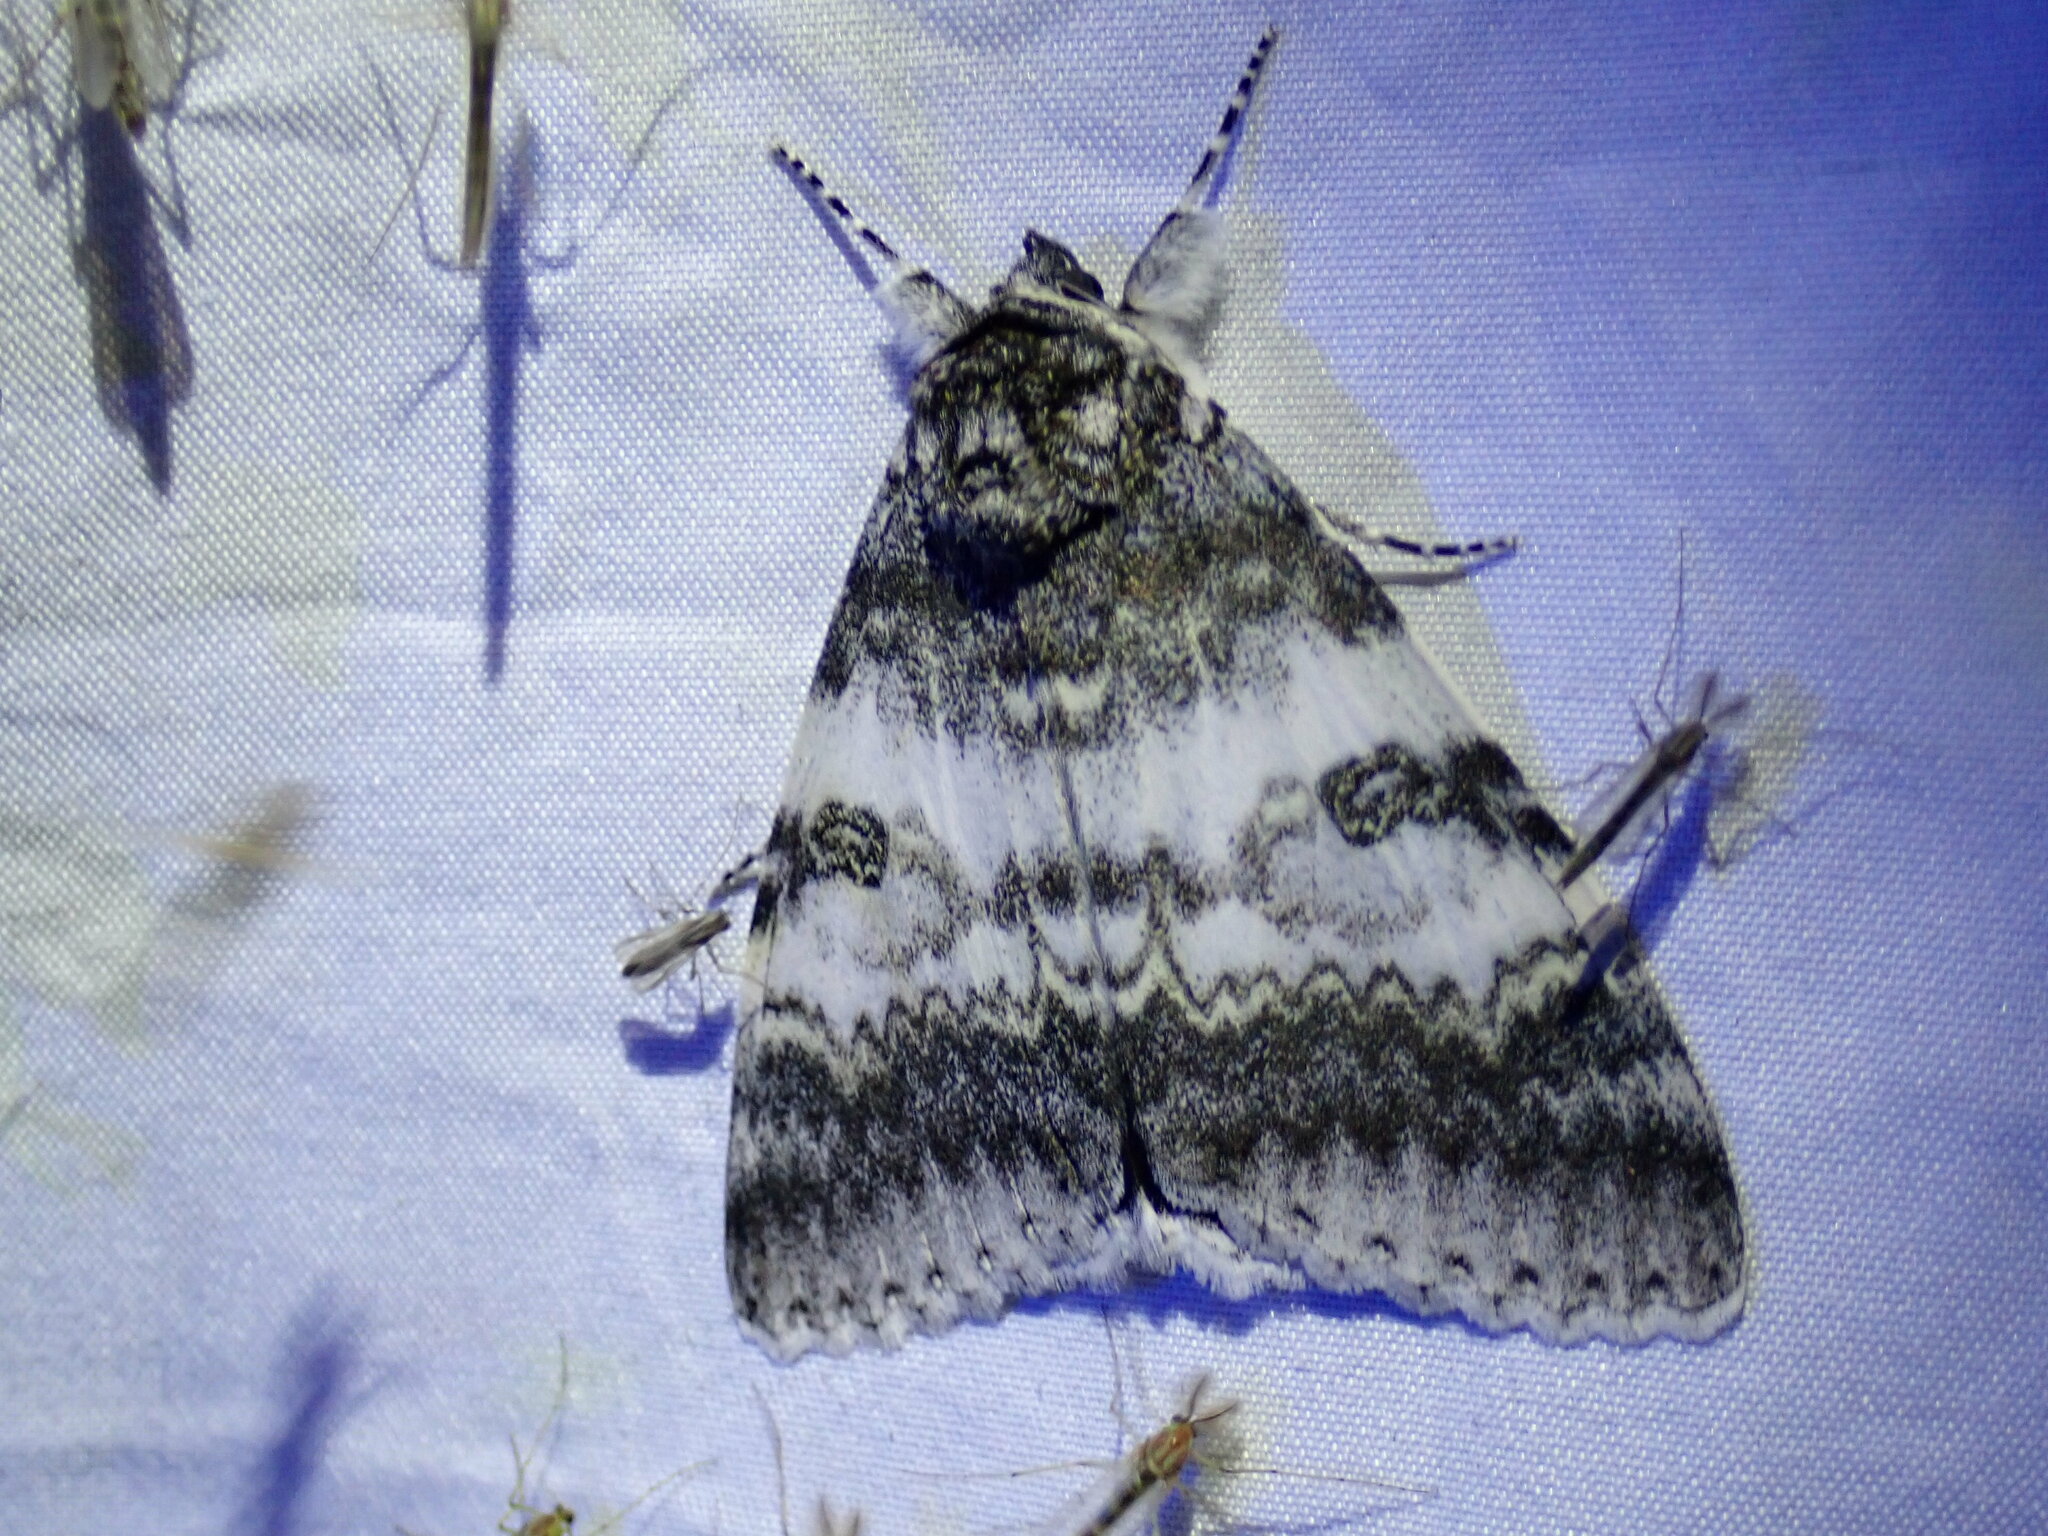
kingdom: Animalia
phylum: Arthropoda
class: Insecta
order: Lepidoptera
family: Erebidae
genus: Catocala
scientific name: Catocala relicta
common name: White underwing
